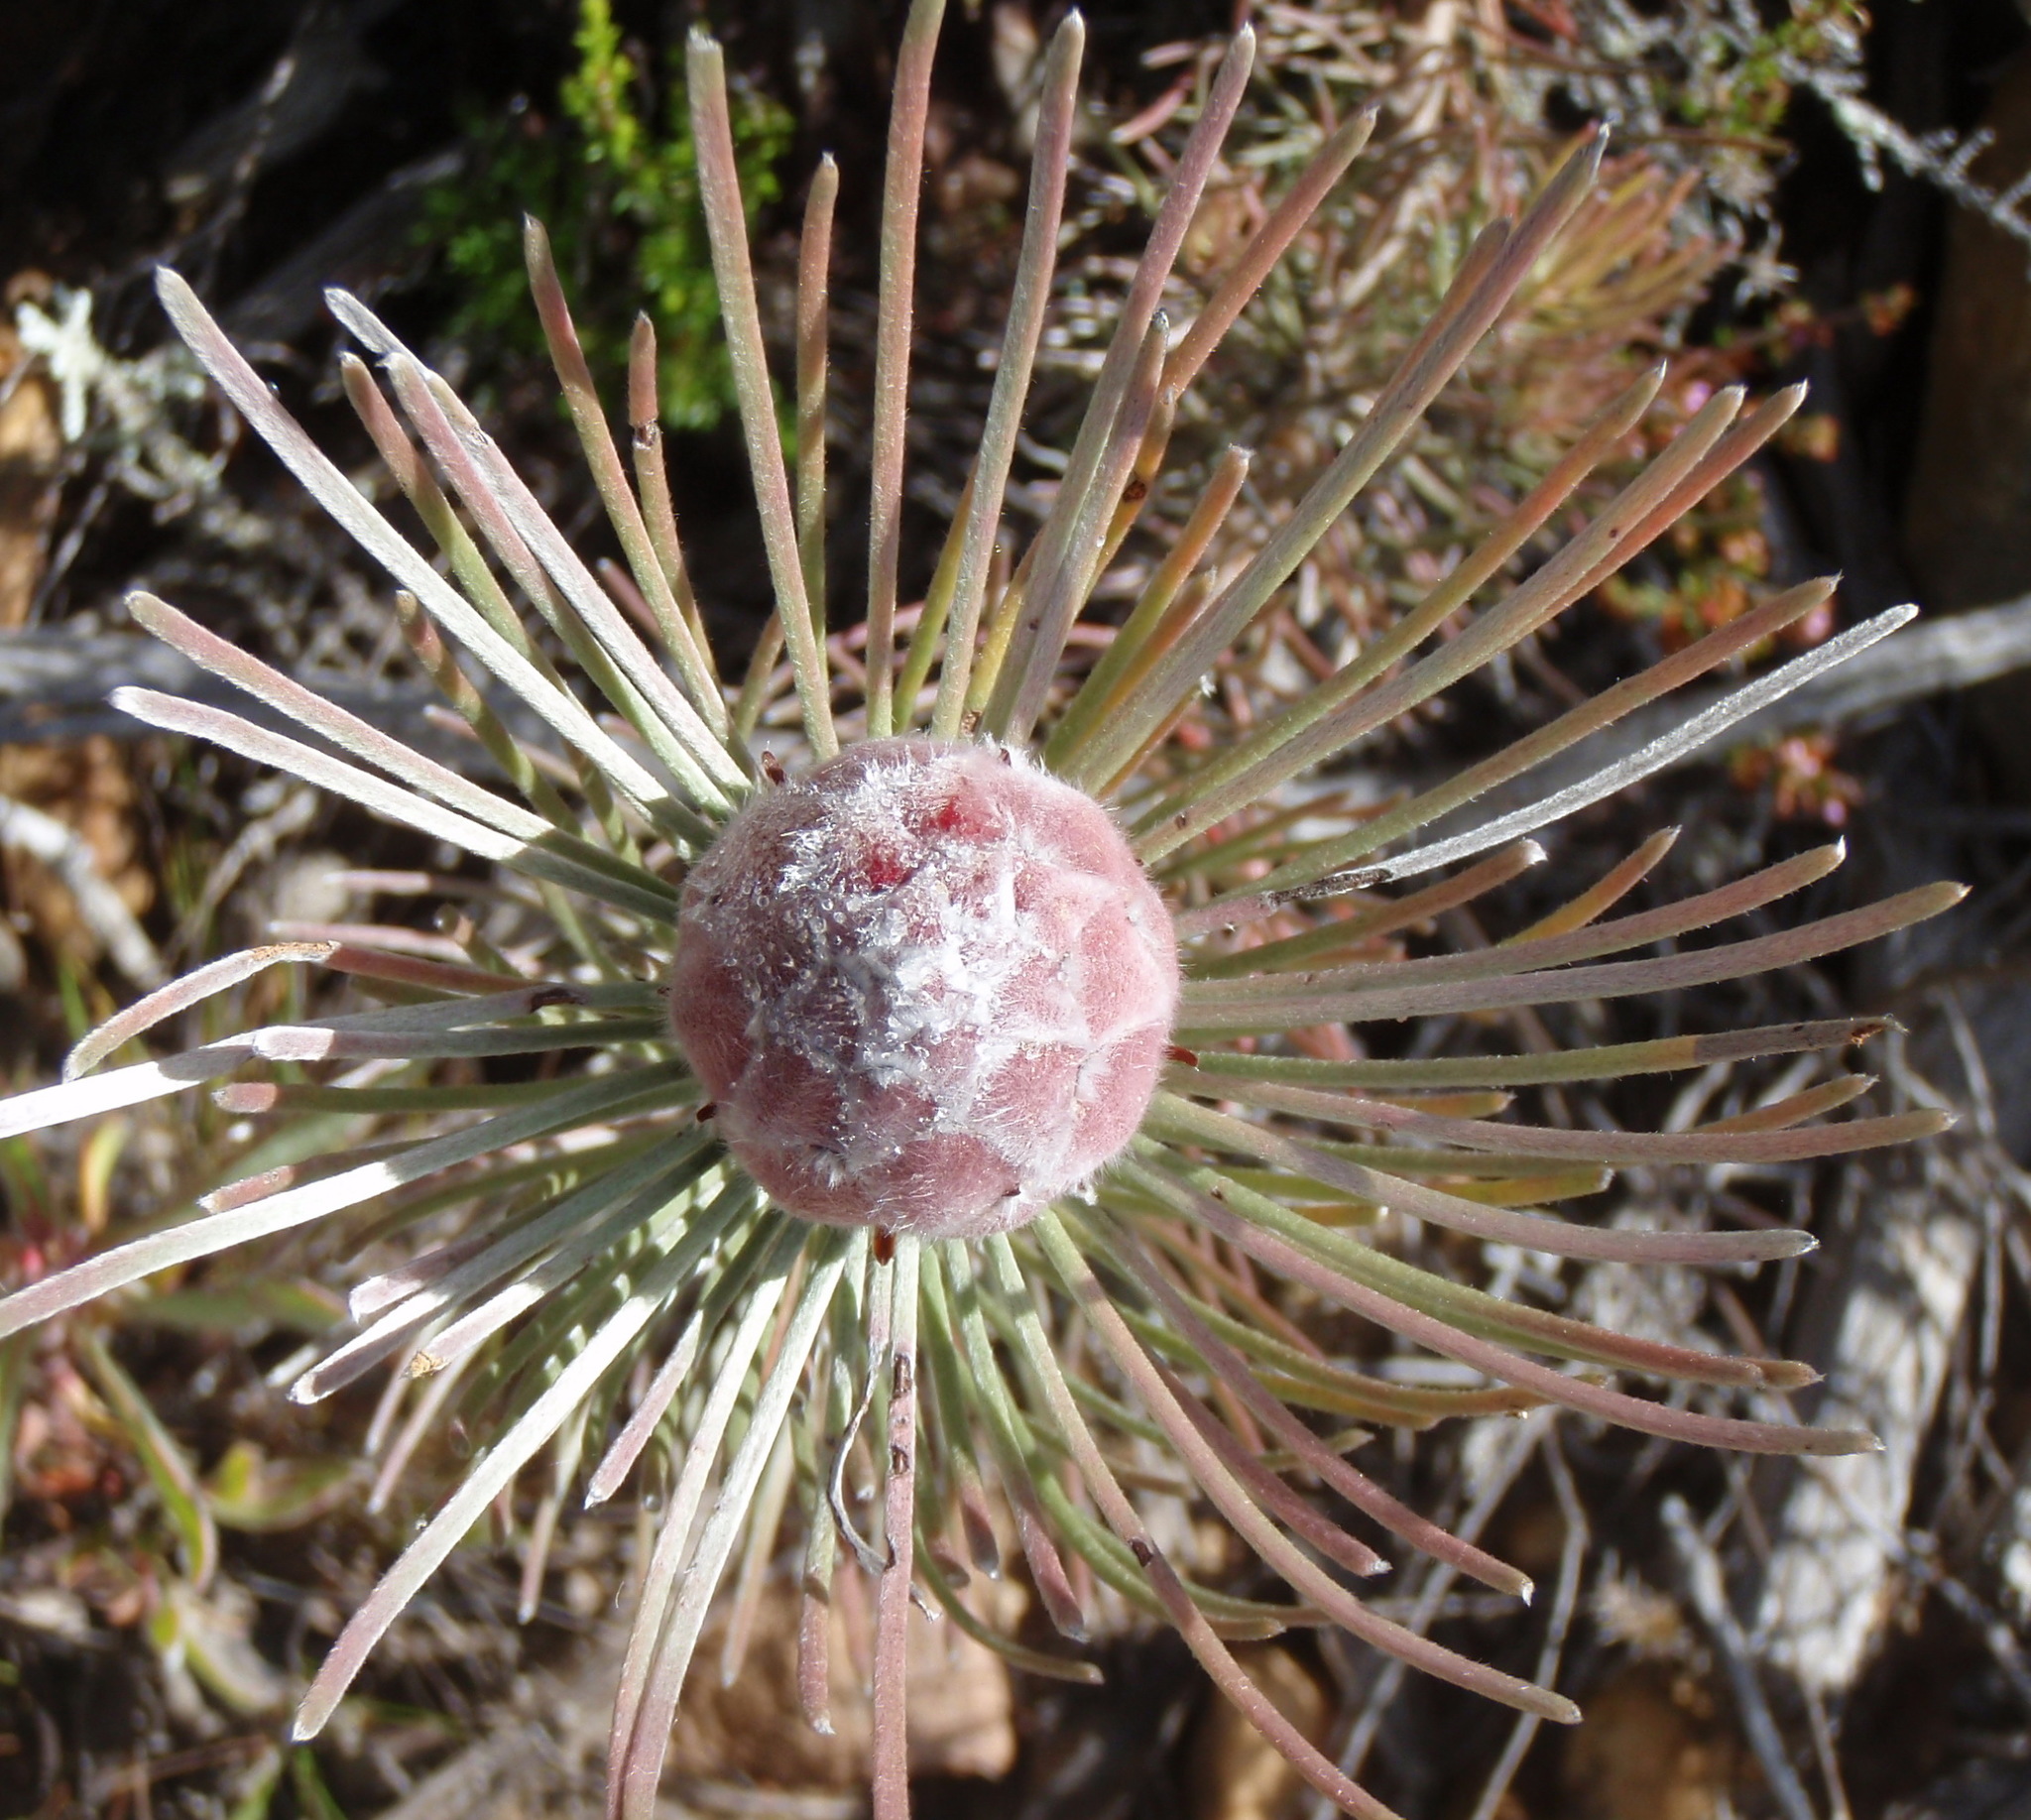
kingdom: Plantae
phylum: Tracheophyta
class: Magnoliopsida
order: Proteales
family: Proteaceae
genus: Leucadendron
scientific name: Leucadendron album
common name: Linear-leaf conebush
